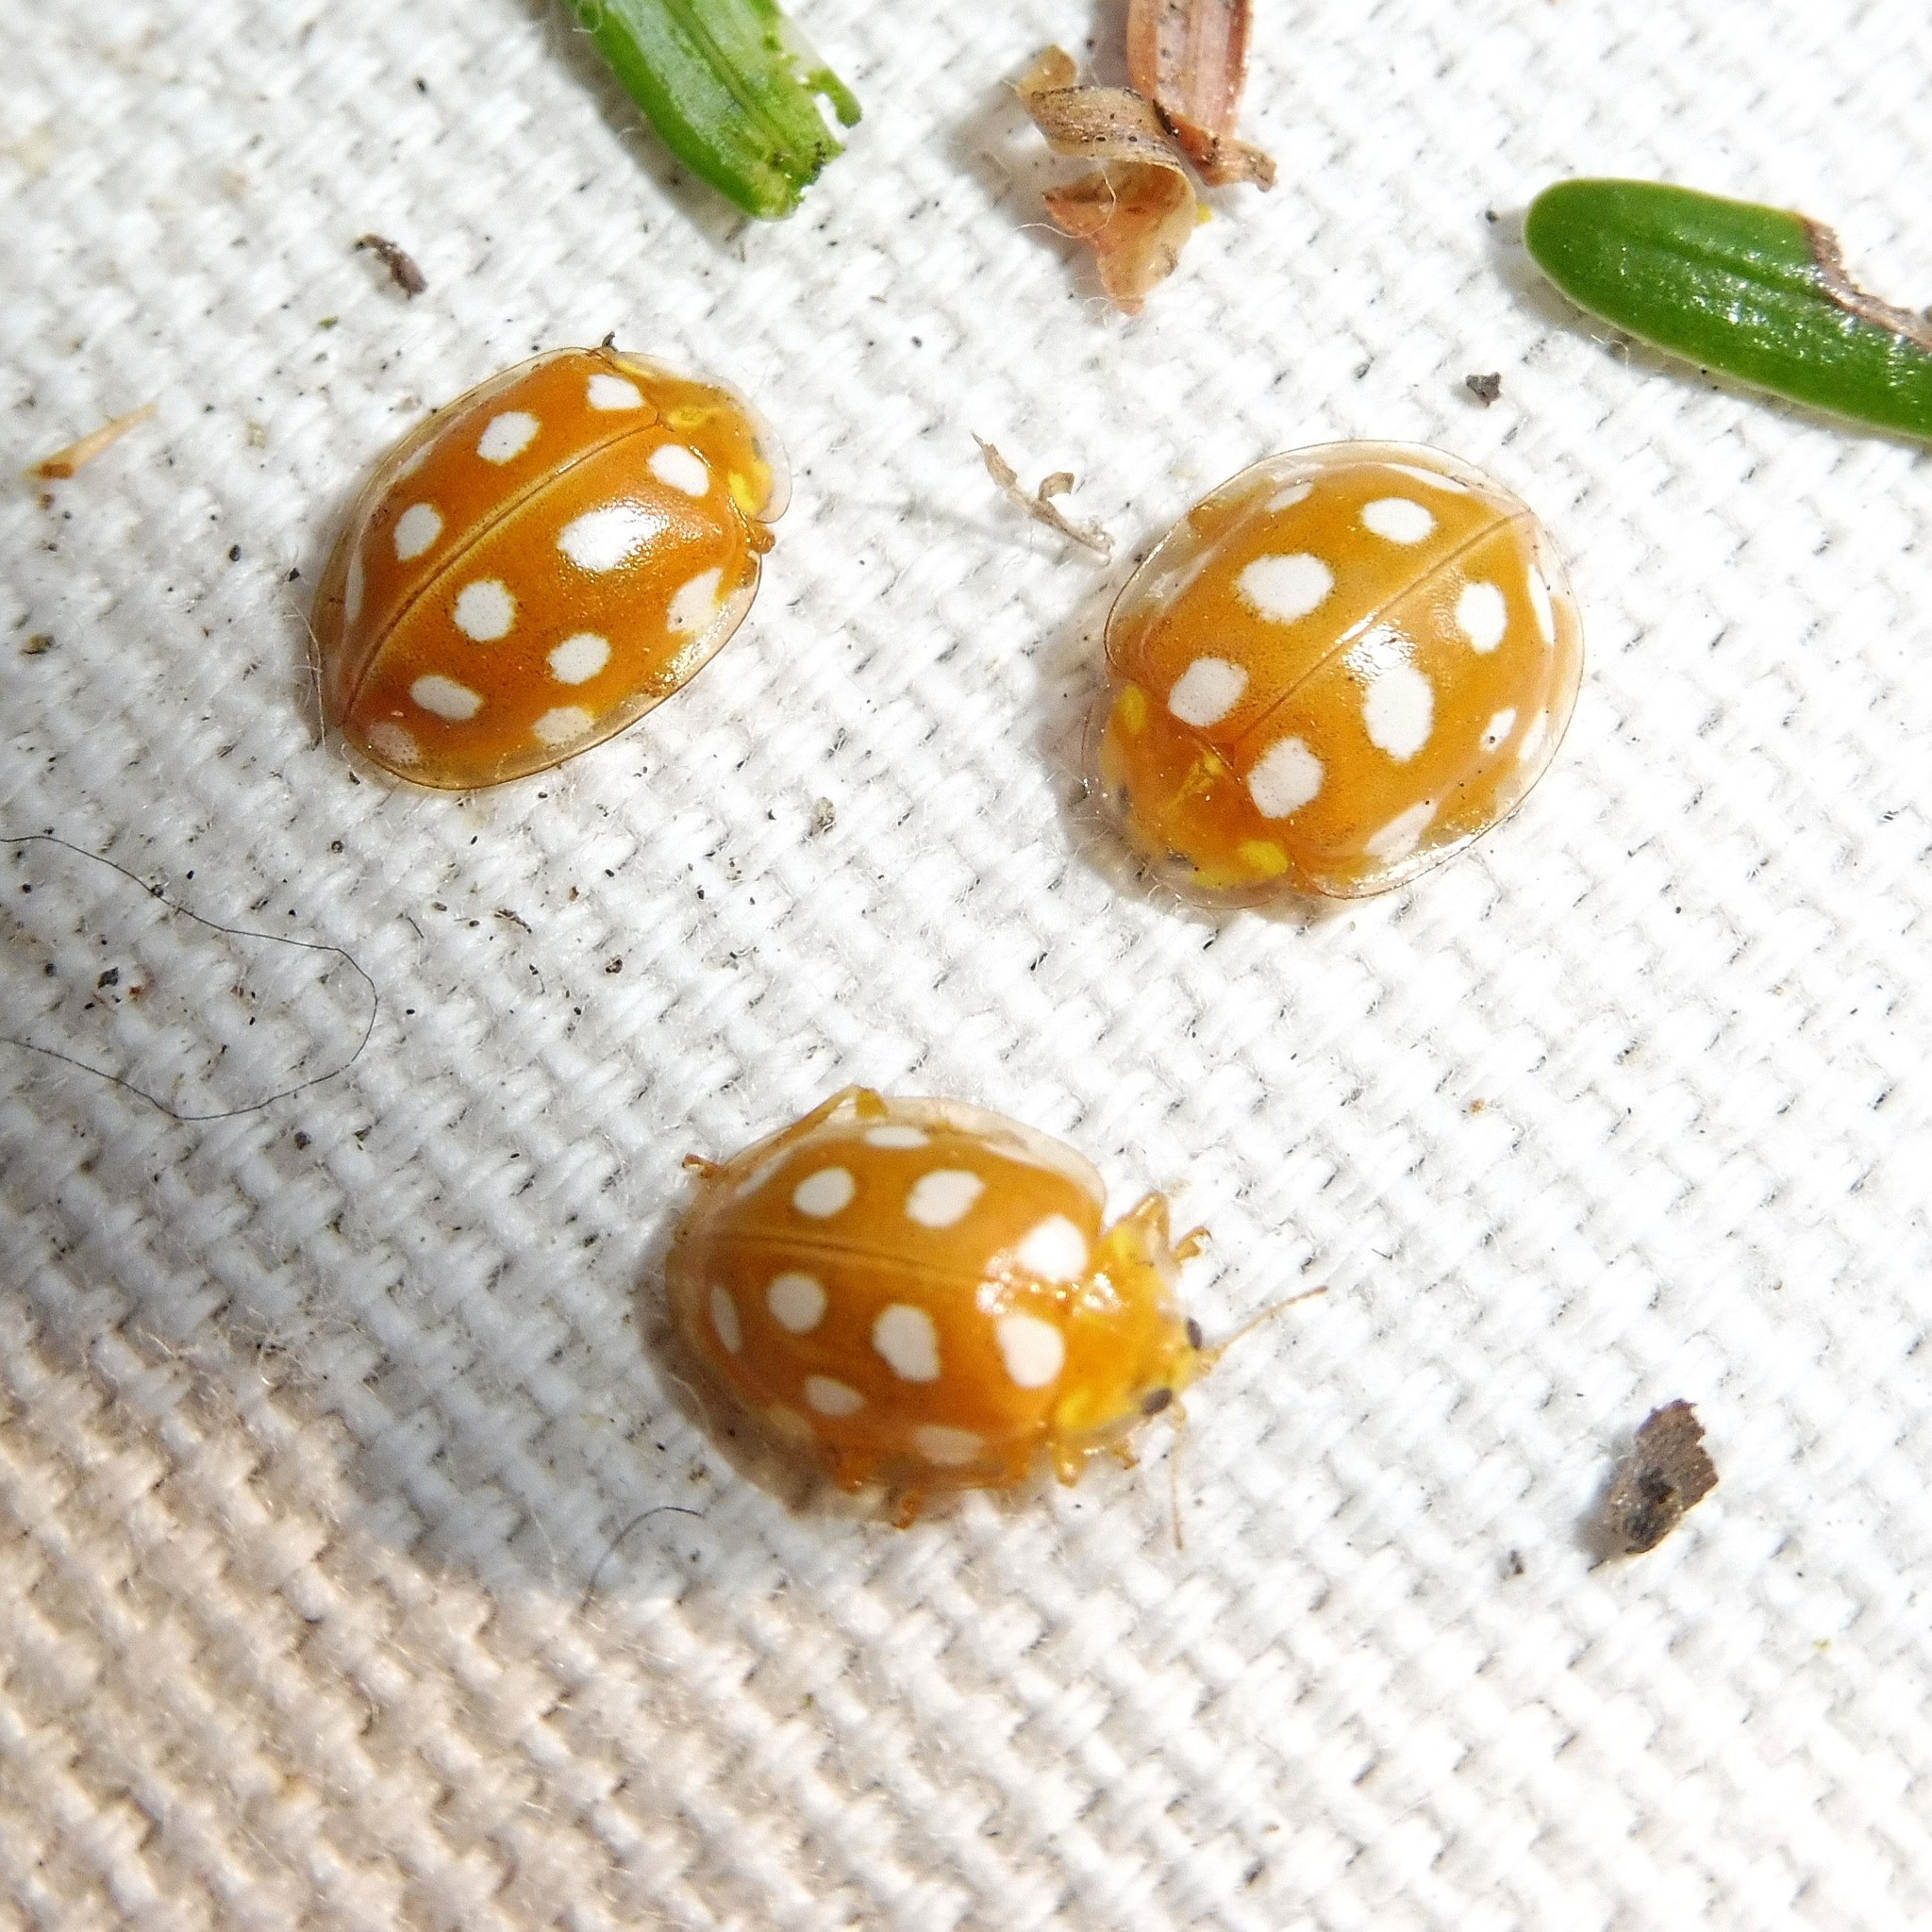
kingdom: Animalia
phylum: Arthropoda
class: Insecta
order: Coleoptera
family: Coccinellidae
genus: Halyzia
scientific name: Halyzia sedecimguttata
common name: Orange ladybird
